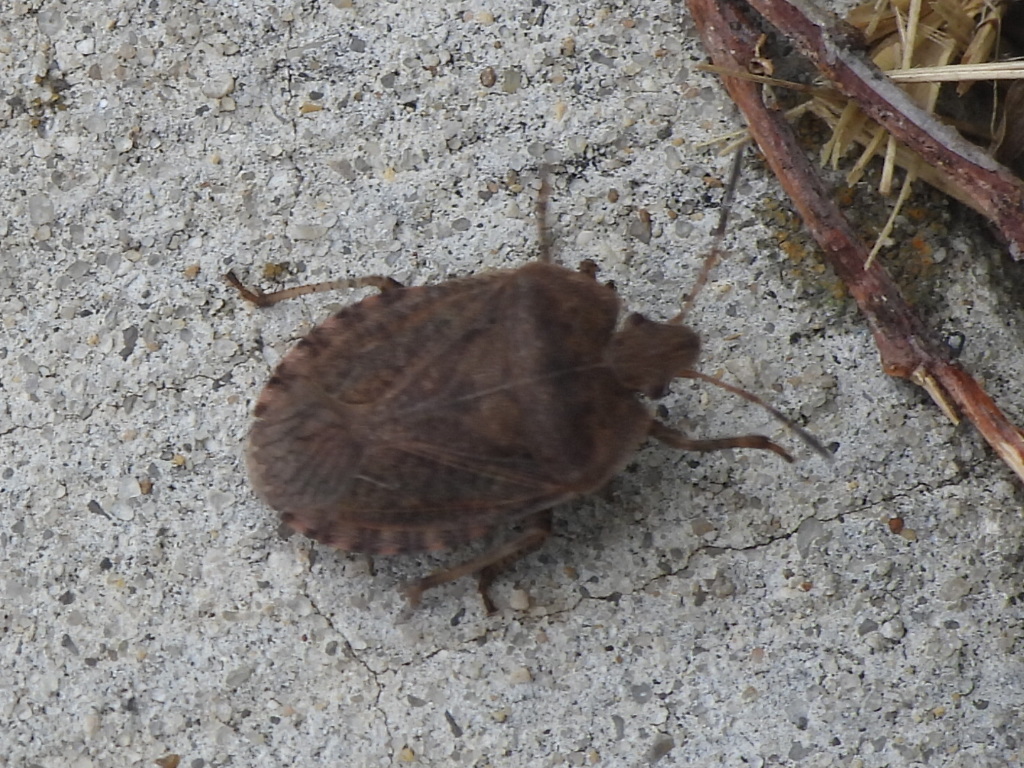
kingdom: Animalia
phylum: Arthropoda
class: Insecta
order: Hemiptera
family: Pentatomidae
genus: Menecles
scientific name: Menecles insertus
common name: Elf shoe stink bug
